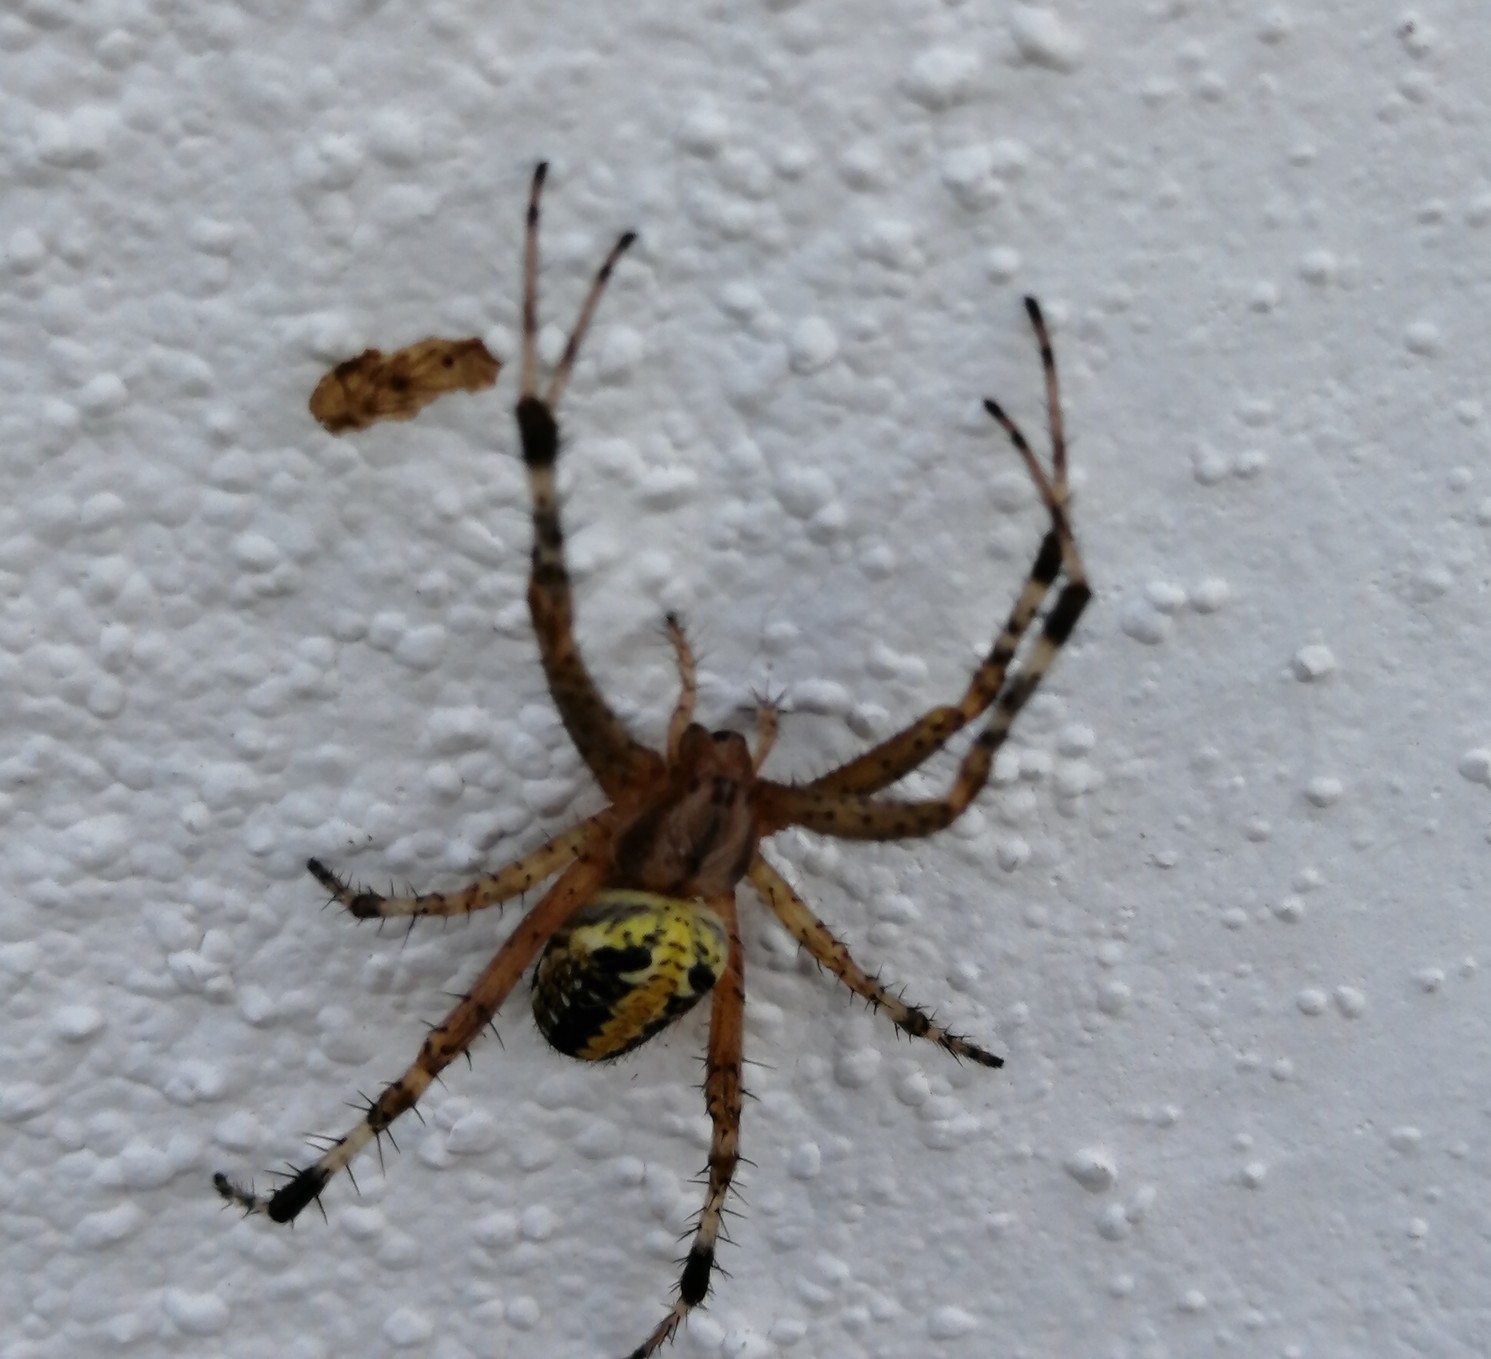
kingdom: Animalia
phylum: Arthropoda
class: Arachnida
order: Araneae
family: Araneidae
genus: Neoscona
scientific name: Neoscona oaxacensis
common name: Orb weavers
